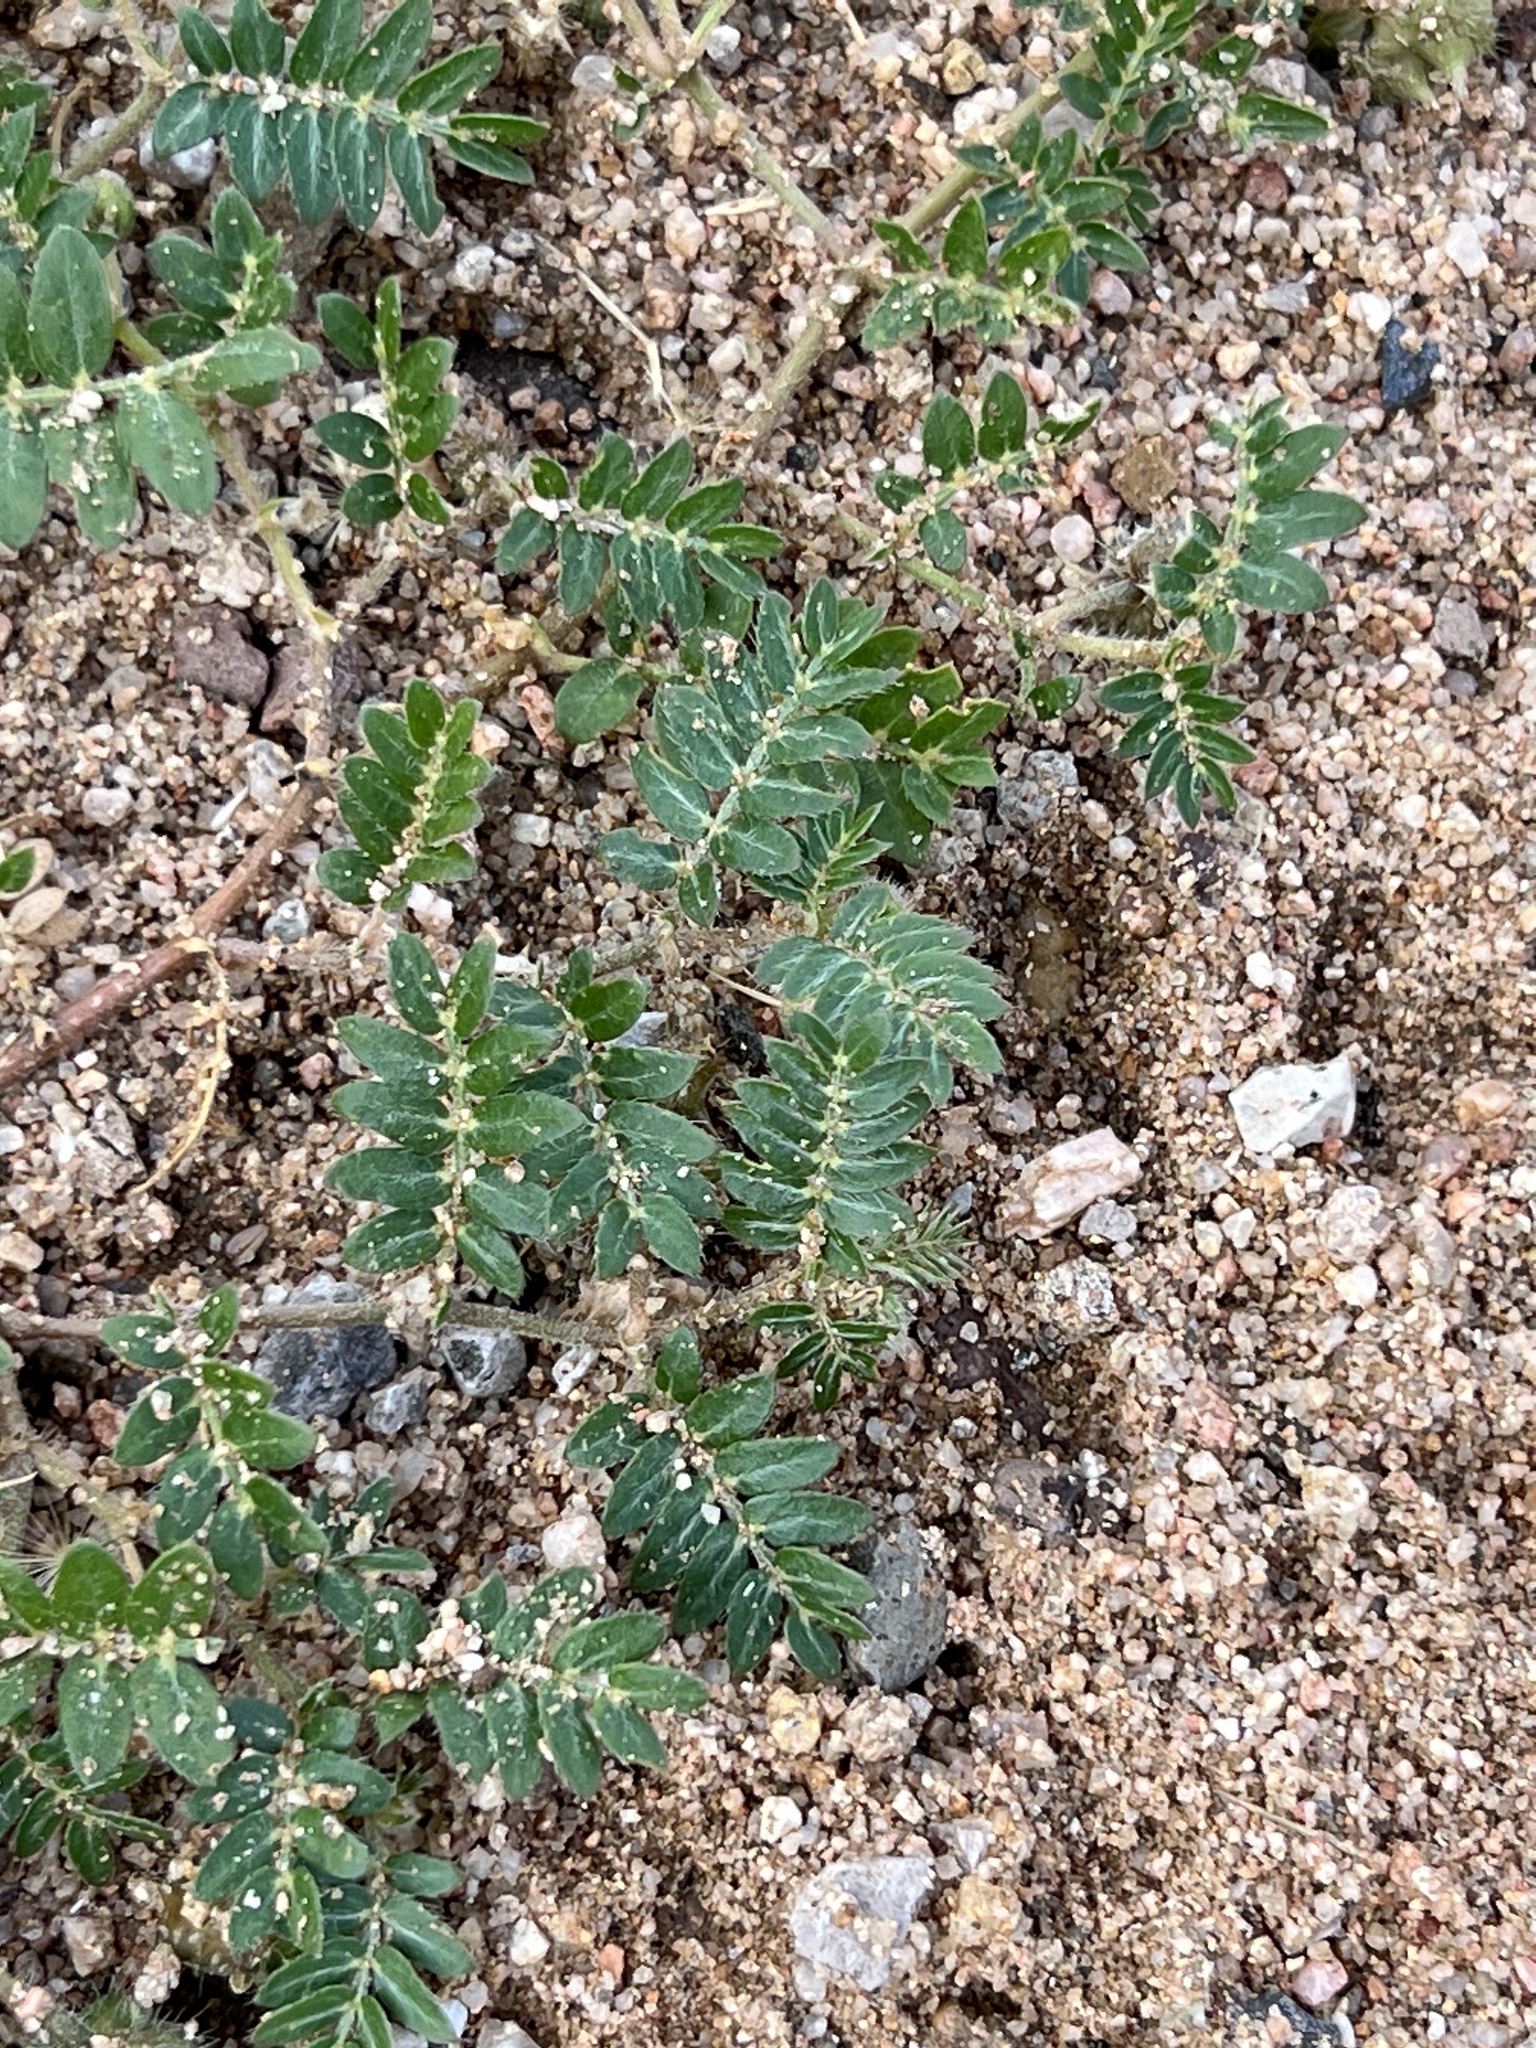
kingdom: Plantae
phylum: Tracheophyta
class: Magnoliopsida
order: Zygophyllales
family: Zygophyllaceae
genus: Tribulus
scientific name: Tribulus terrestris
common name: Puncturevine
